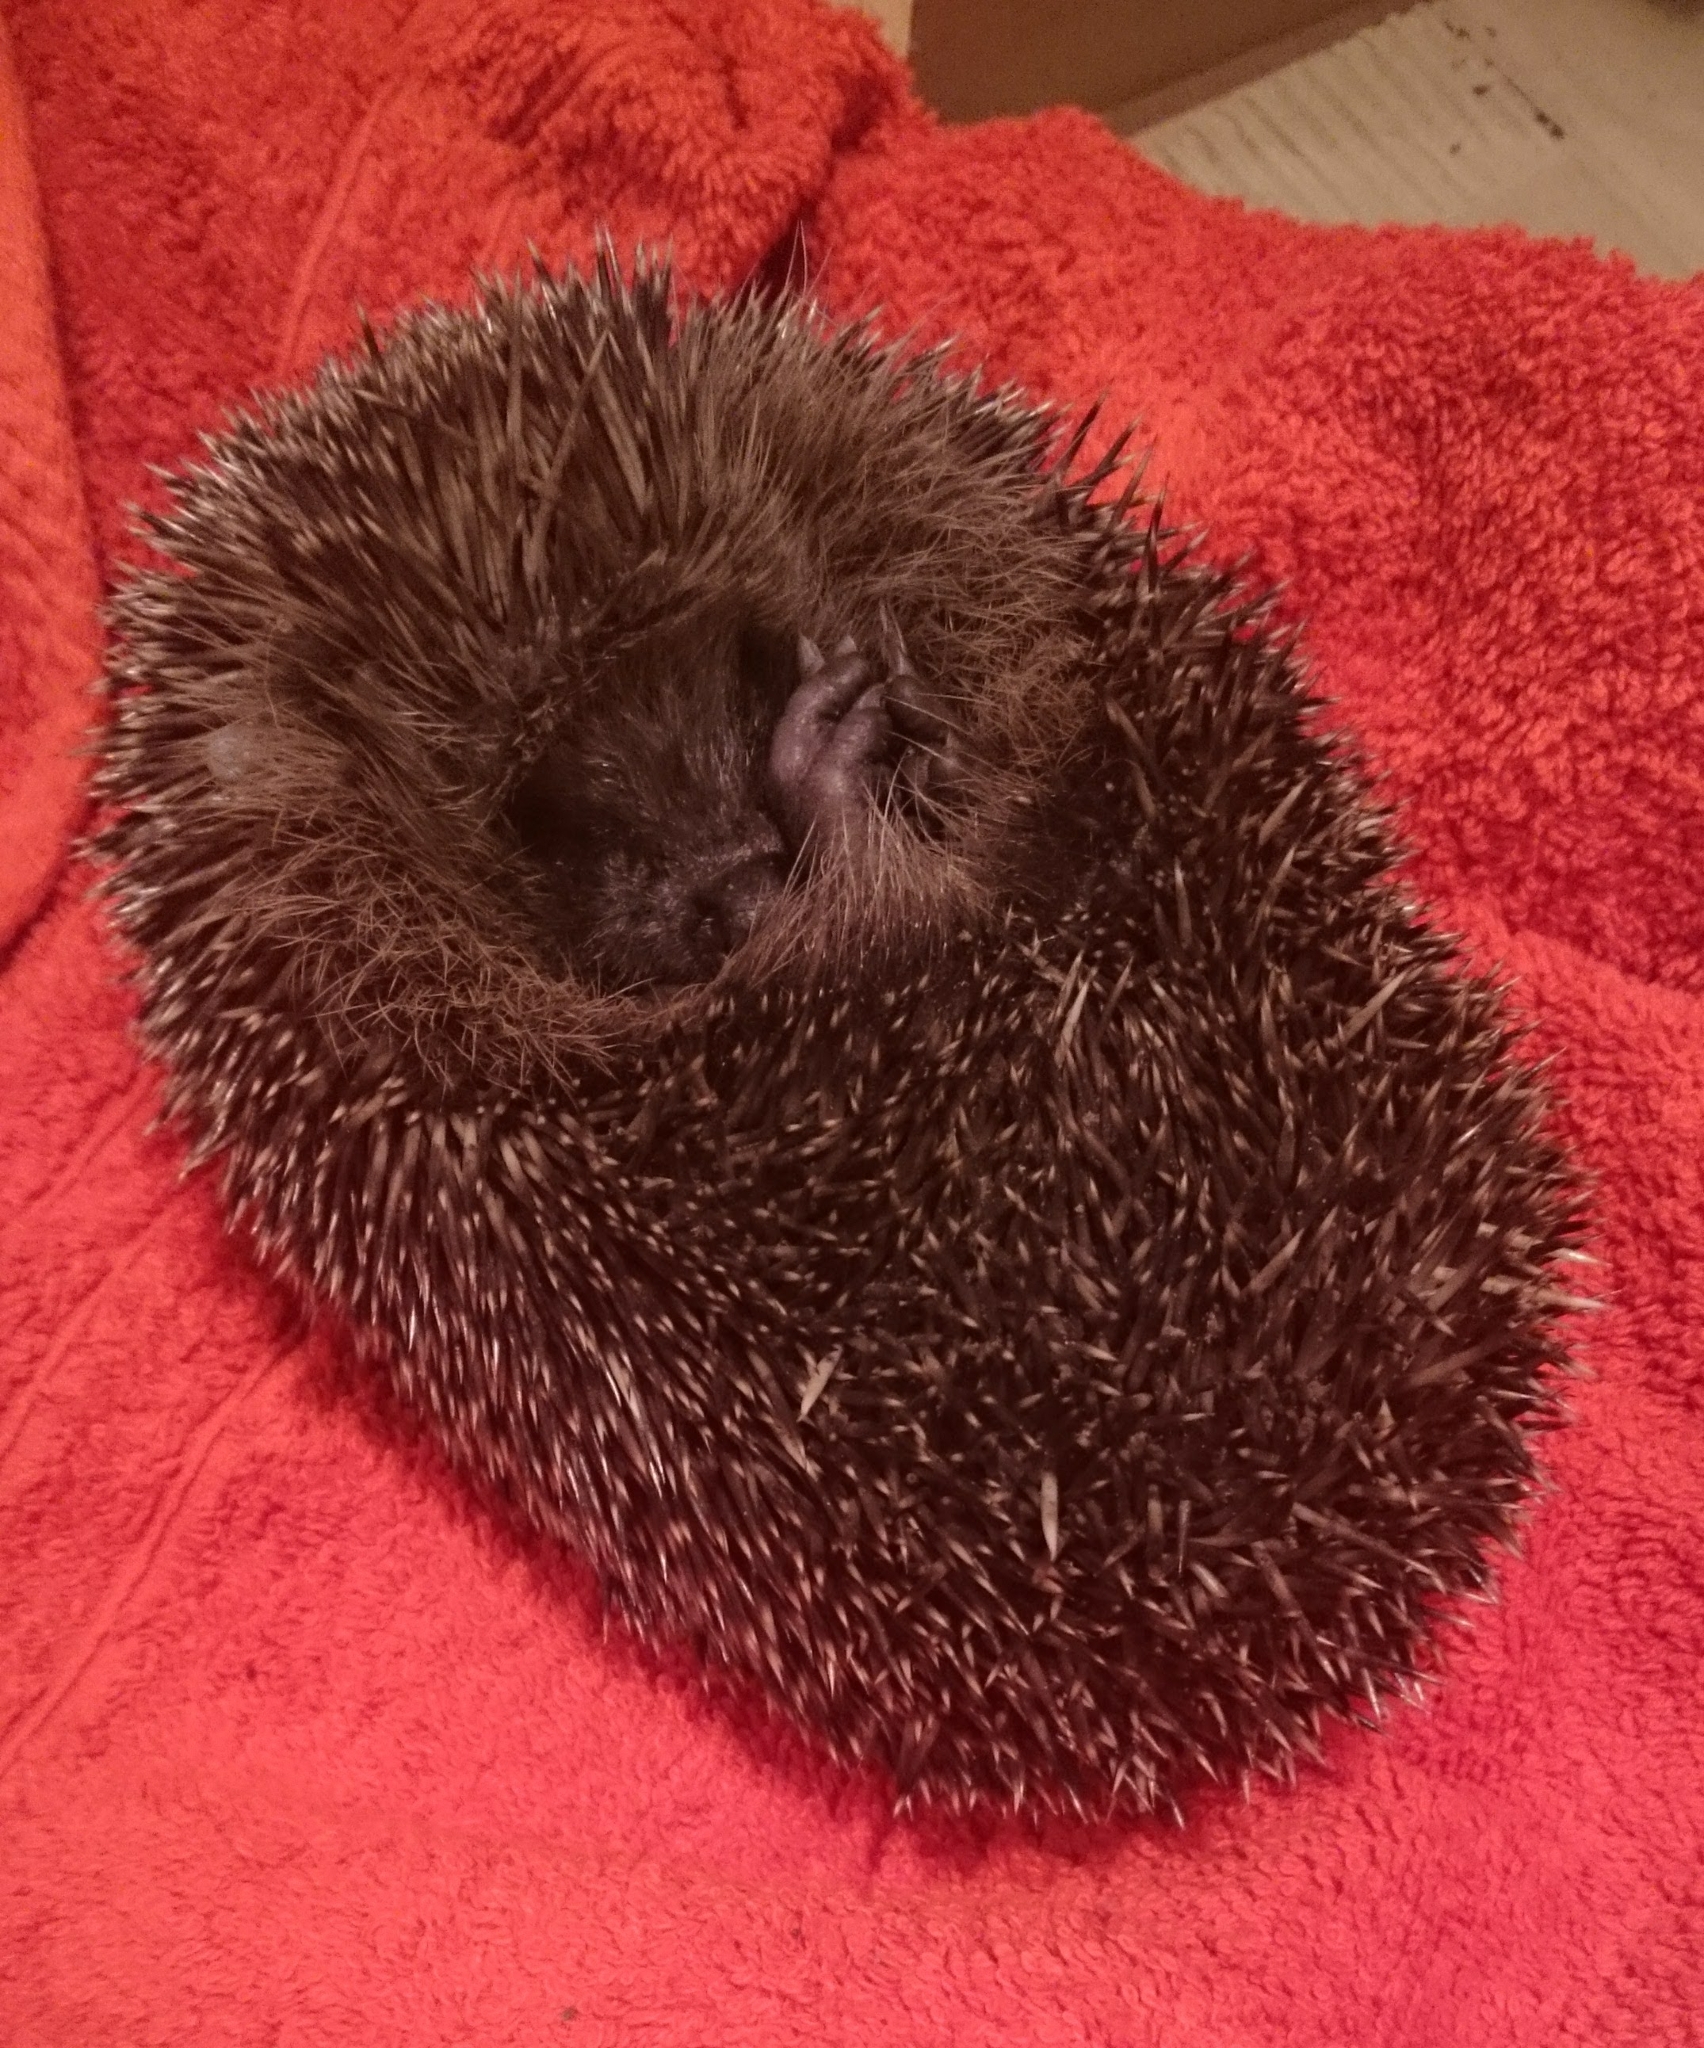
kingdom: Animalia
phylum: Chordata
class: Mammalia
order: Erinaceomorpha
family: Erinaceidae
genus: Erinaceus
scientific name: Erinaceus europaeus
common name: West european hedgehog
